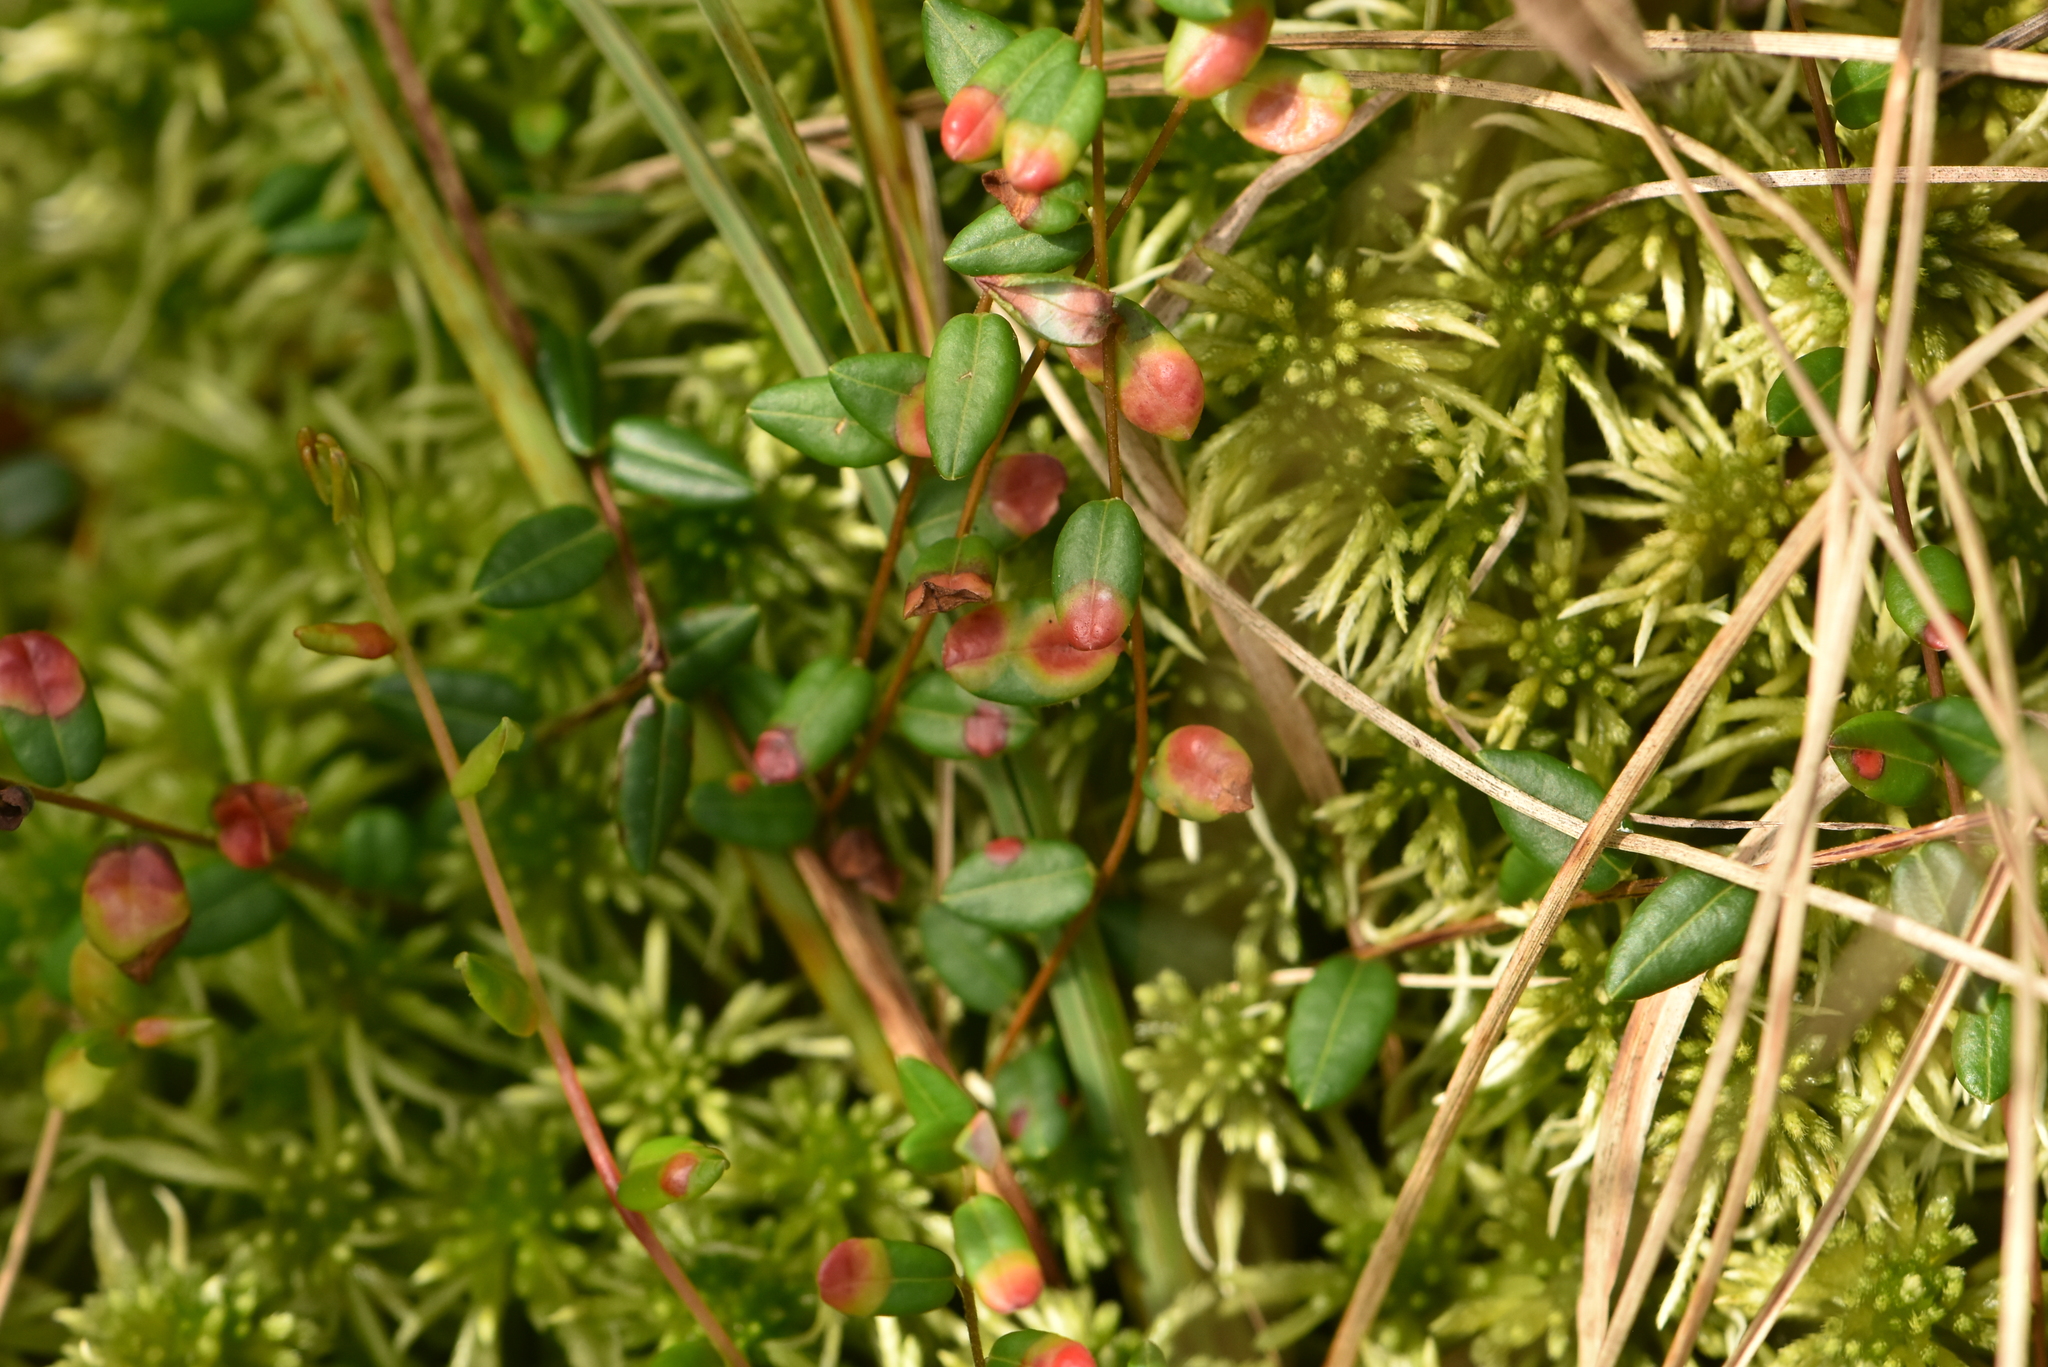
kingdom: Plantae
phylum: Tracheophyta
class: Magnoliopsida
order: Ericales
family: Ericaceae
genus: Vaccinium
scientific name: Vaccinium oxycoccos
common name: Cranberry
